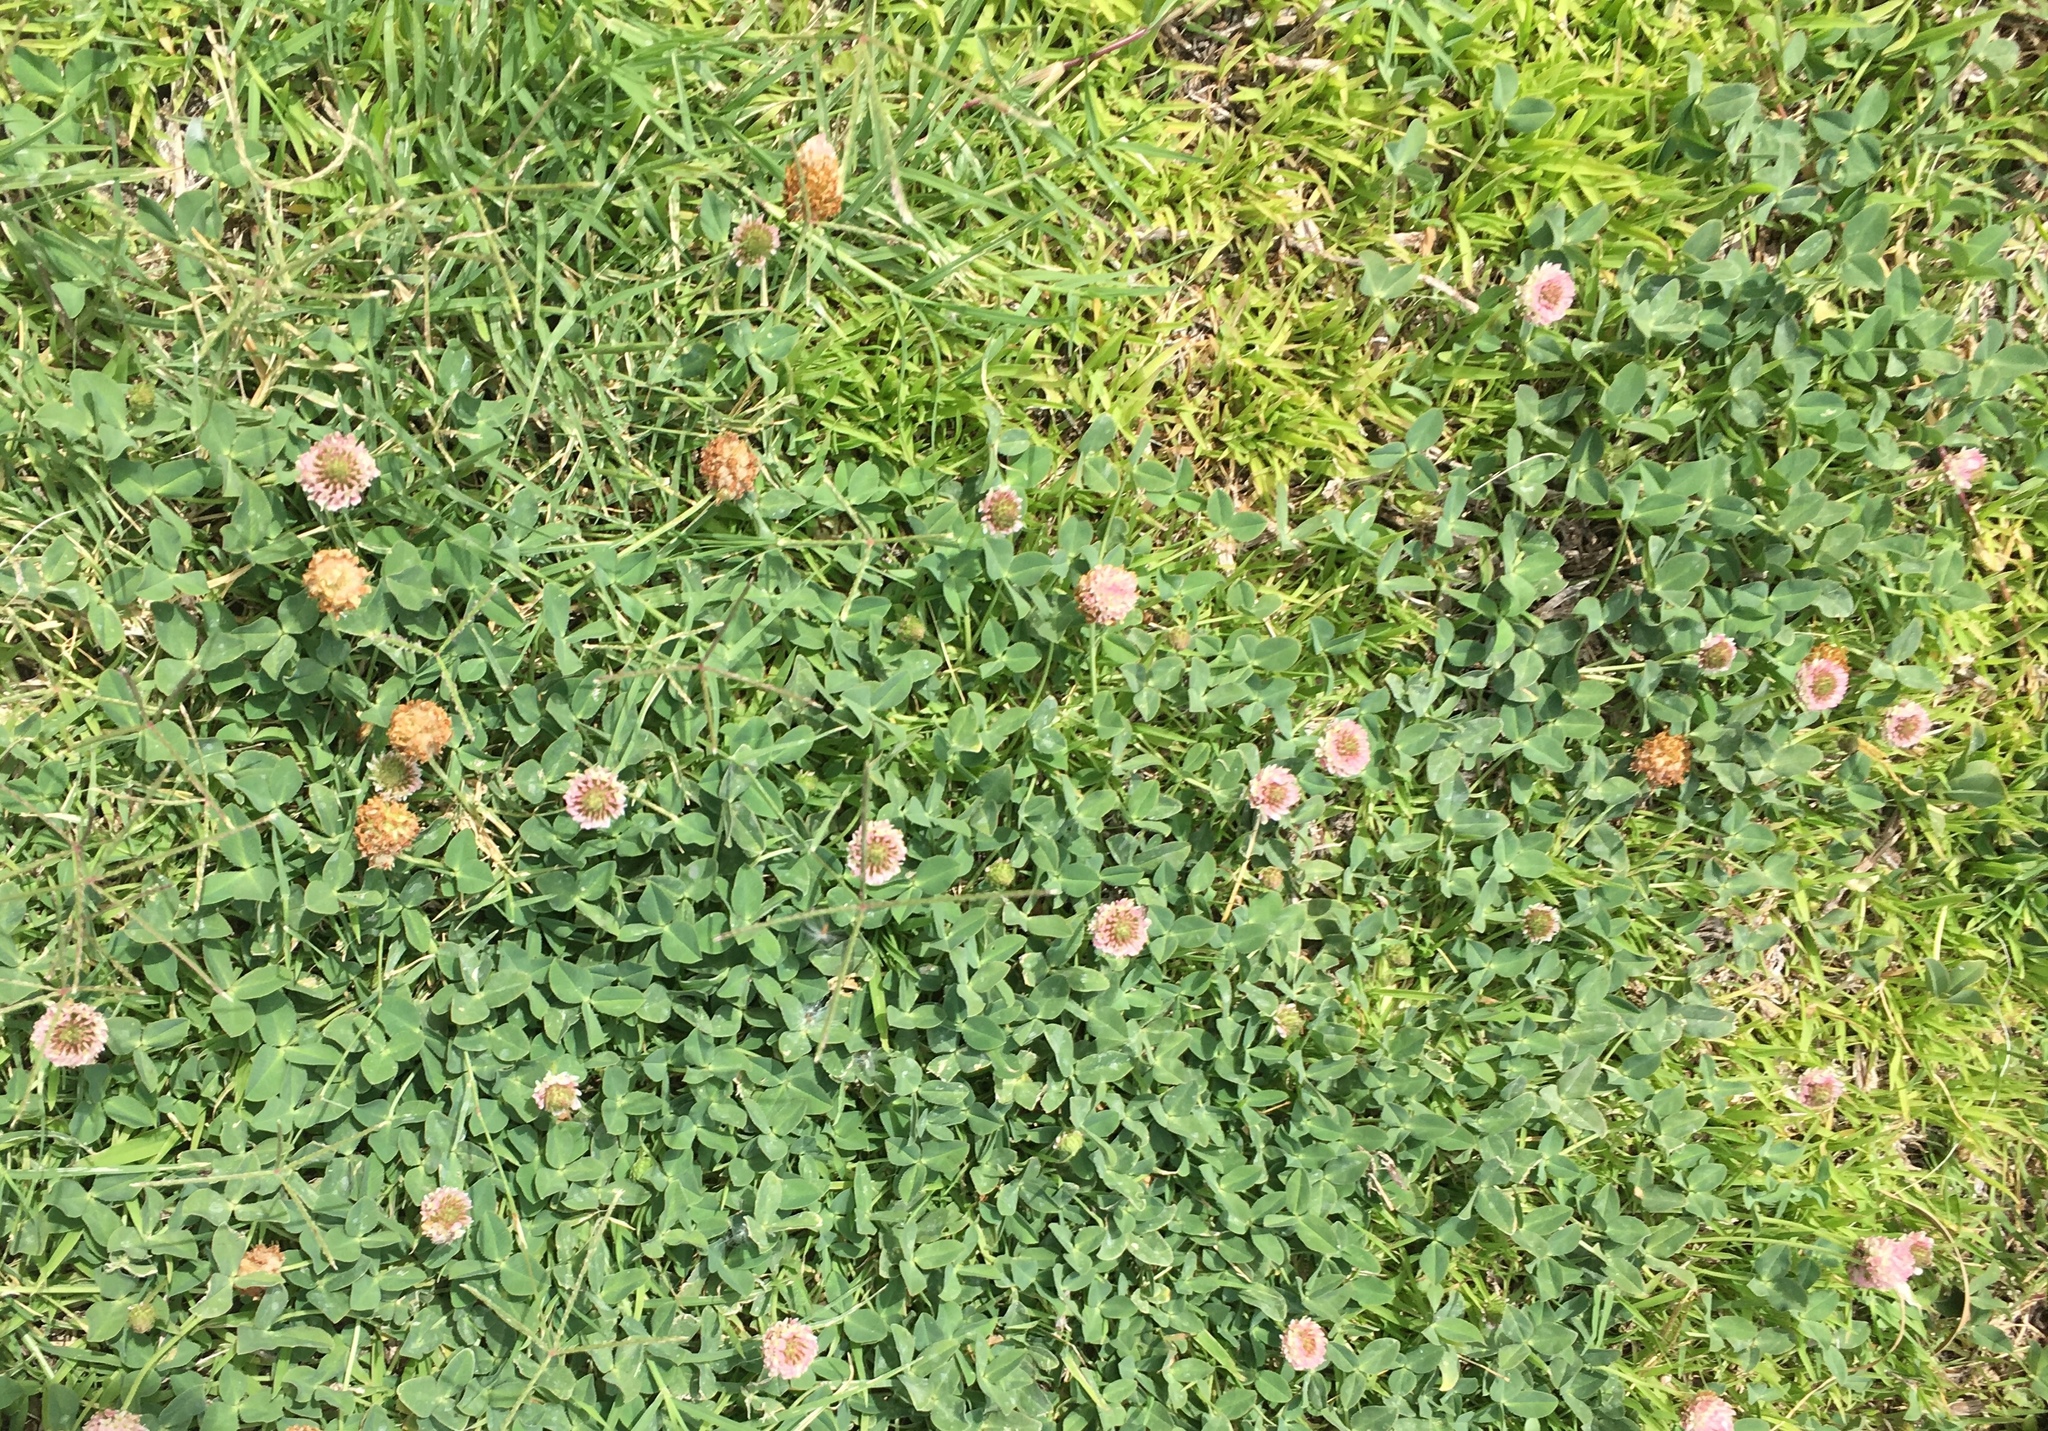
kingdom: Plantae
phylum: Tracheophyta
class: Magnoliopsida
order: Fabales
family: Fabaceae
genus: Trifolium
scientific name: Trifolium fragiferum
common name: Strawberry clover
